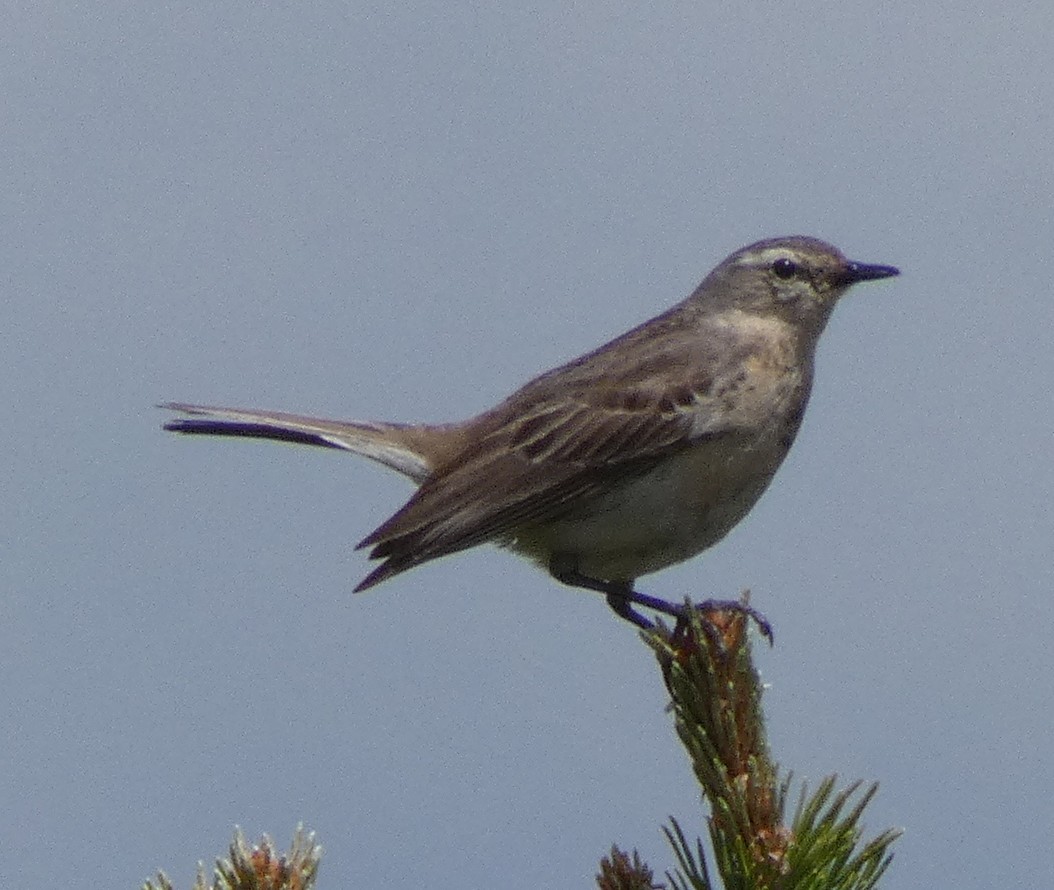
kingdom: Animalia
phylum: Chordata
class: Aves
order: Passeriformes
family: Motacillidae
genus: Anthus
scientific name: Anthus spinoletta
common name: Water pipit
